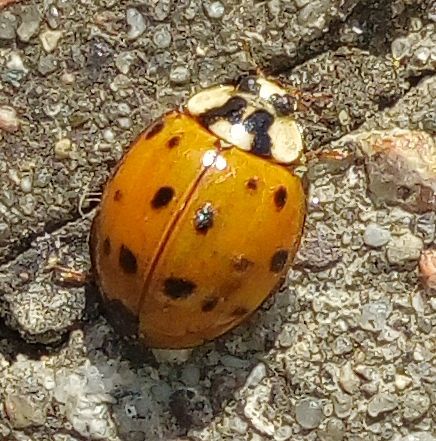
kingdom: Animalia
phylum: Arthropoda
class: Insecta
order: Coleoptera
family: Coccinellidae
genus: Harmonia
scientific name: Harmonia axyridis
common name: Harlequin ladybird
